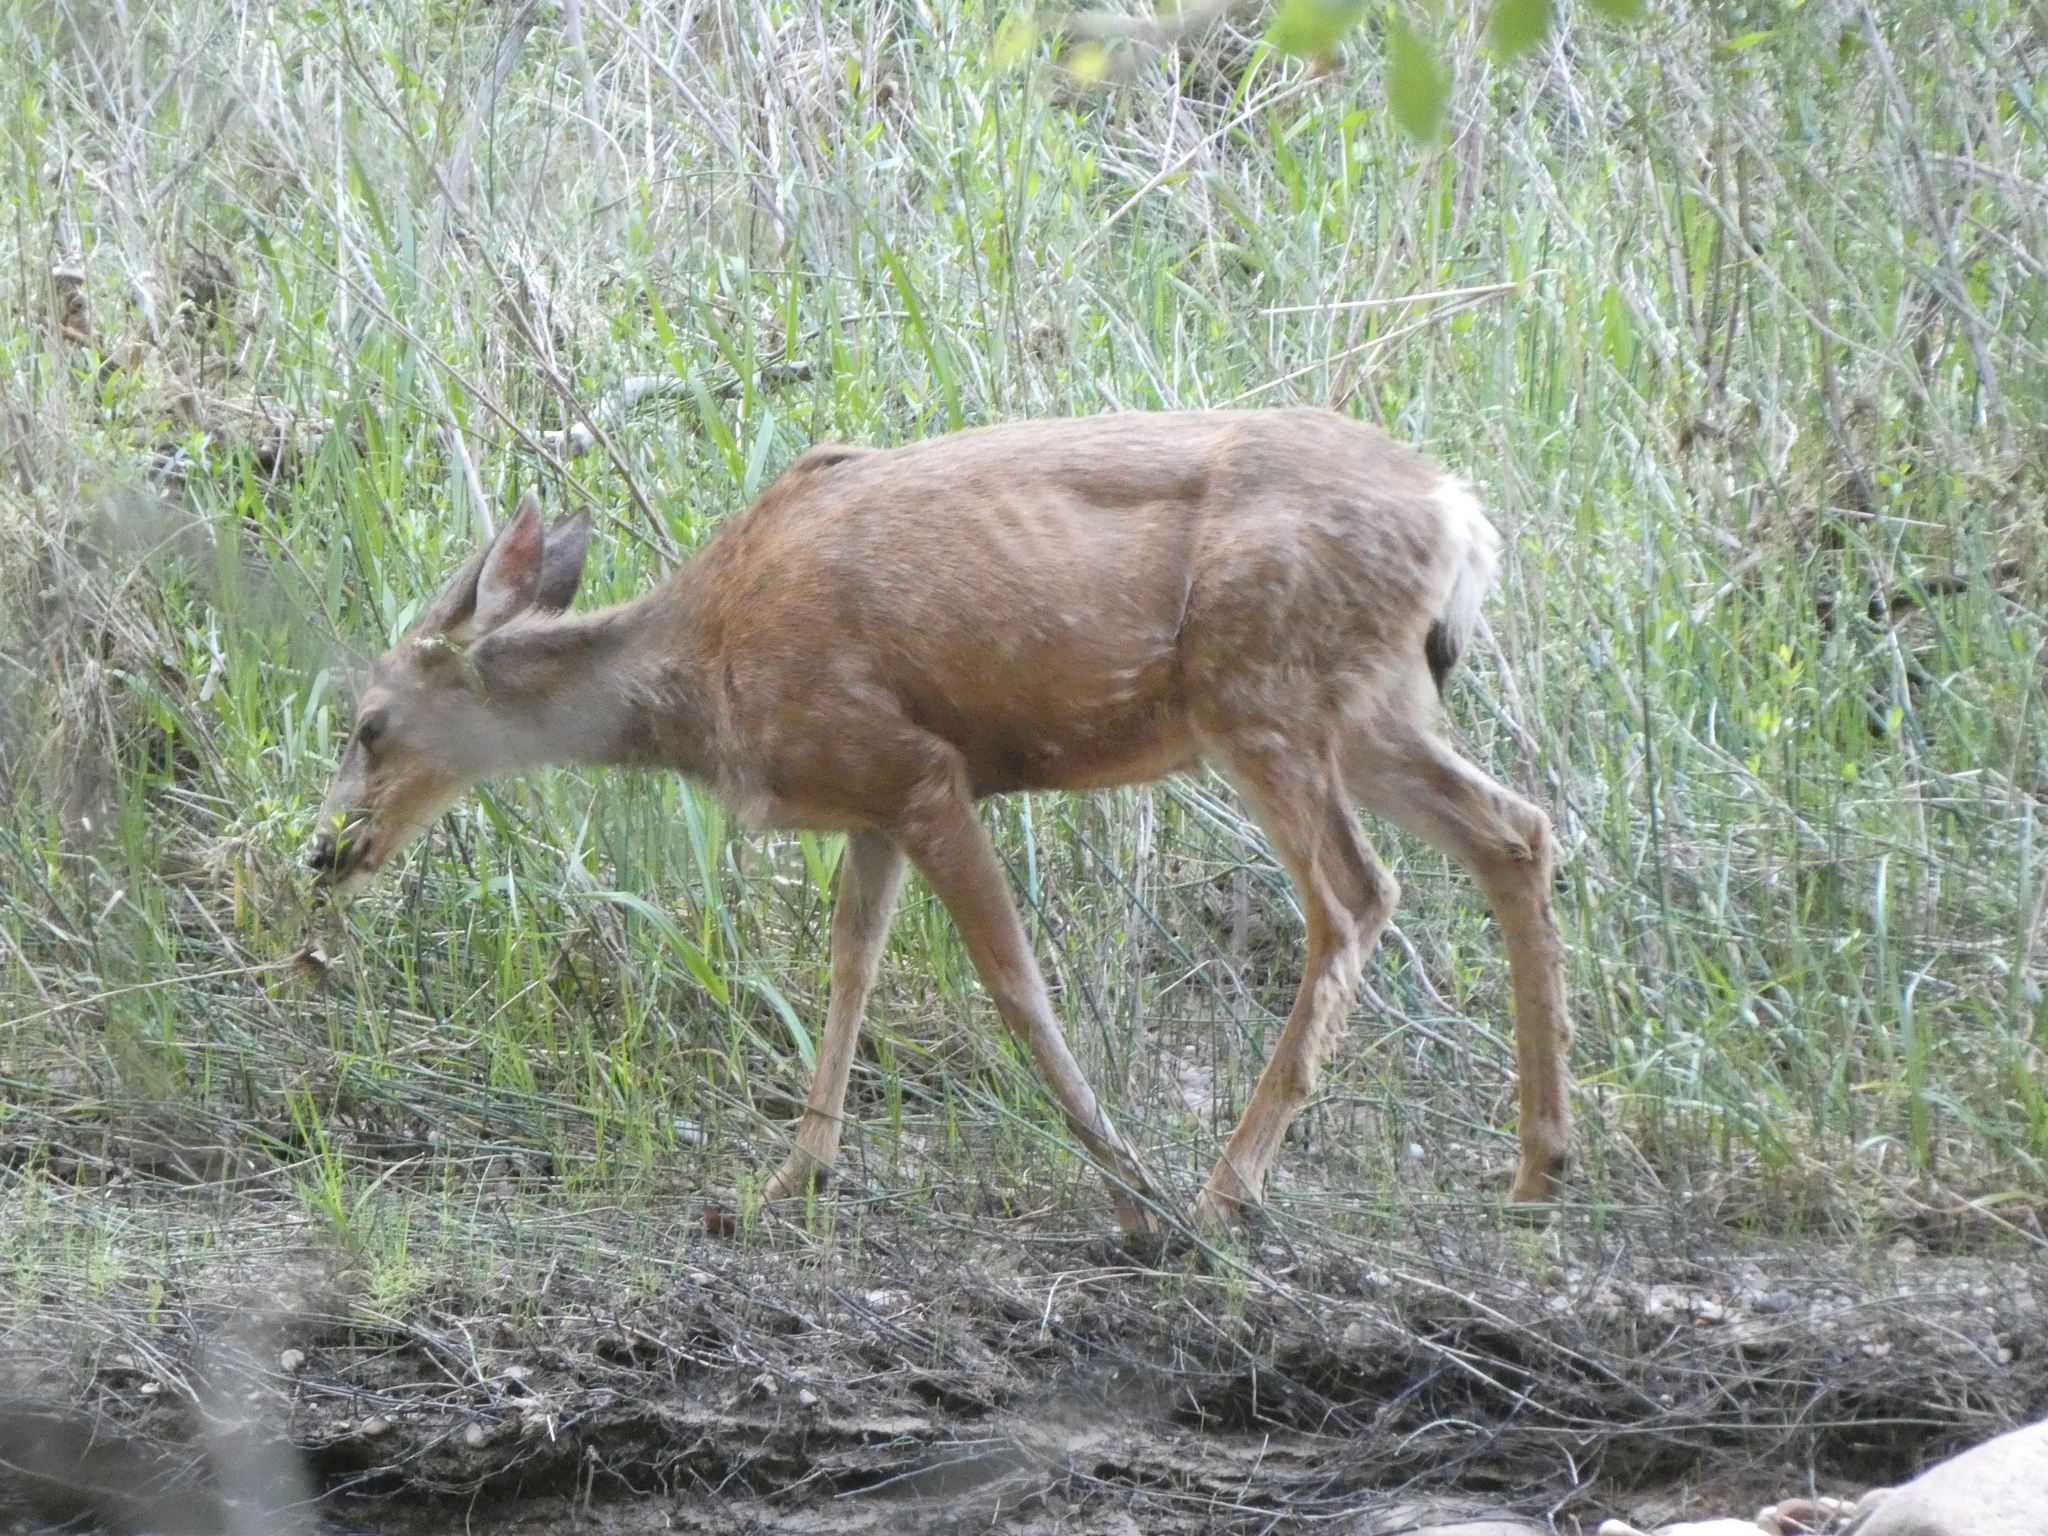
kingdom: Animalia
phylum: Chordata
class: Mammalia
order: Artiodactyla
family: Cervidae
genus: Odocoileus
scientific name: Odocoileus hemionus
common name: Mule deer
